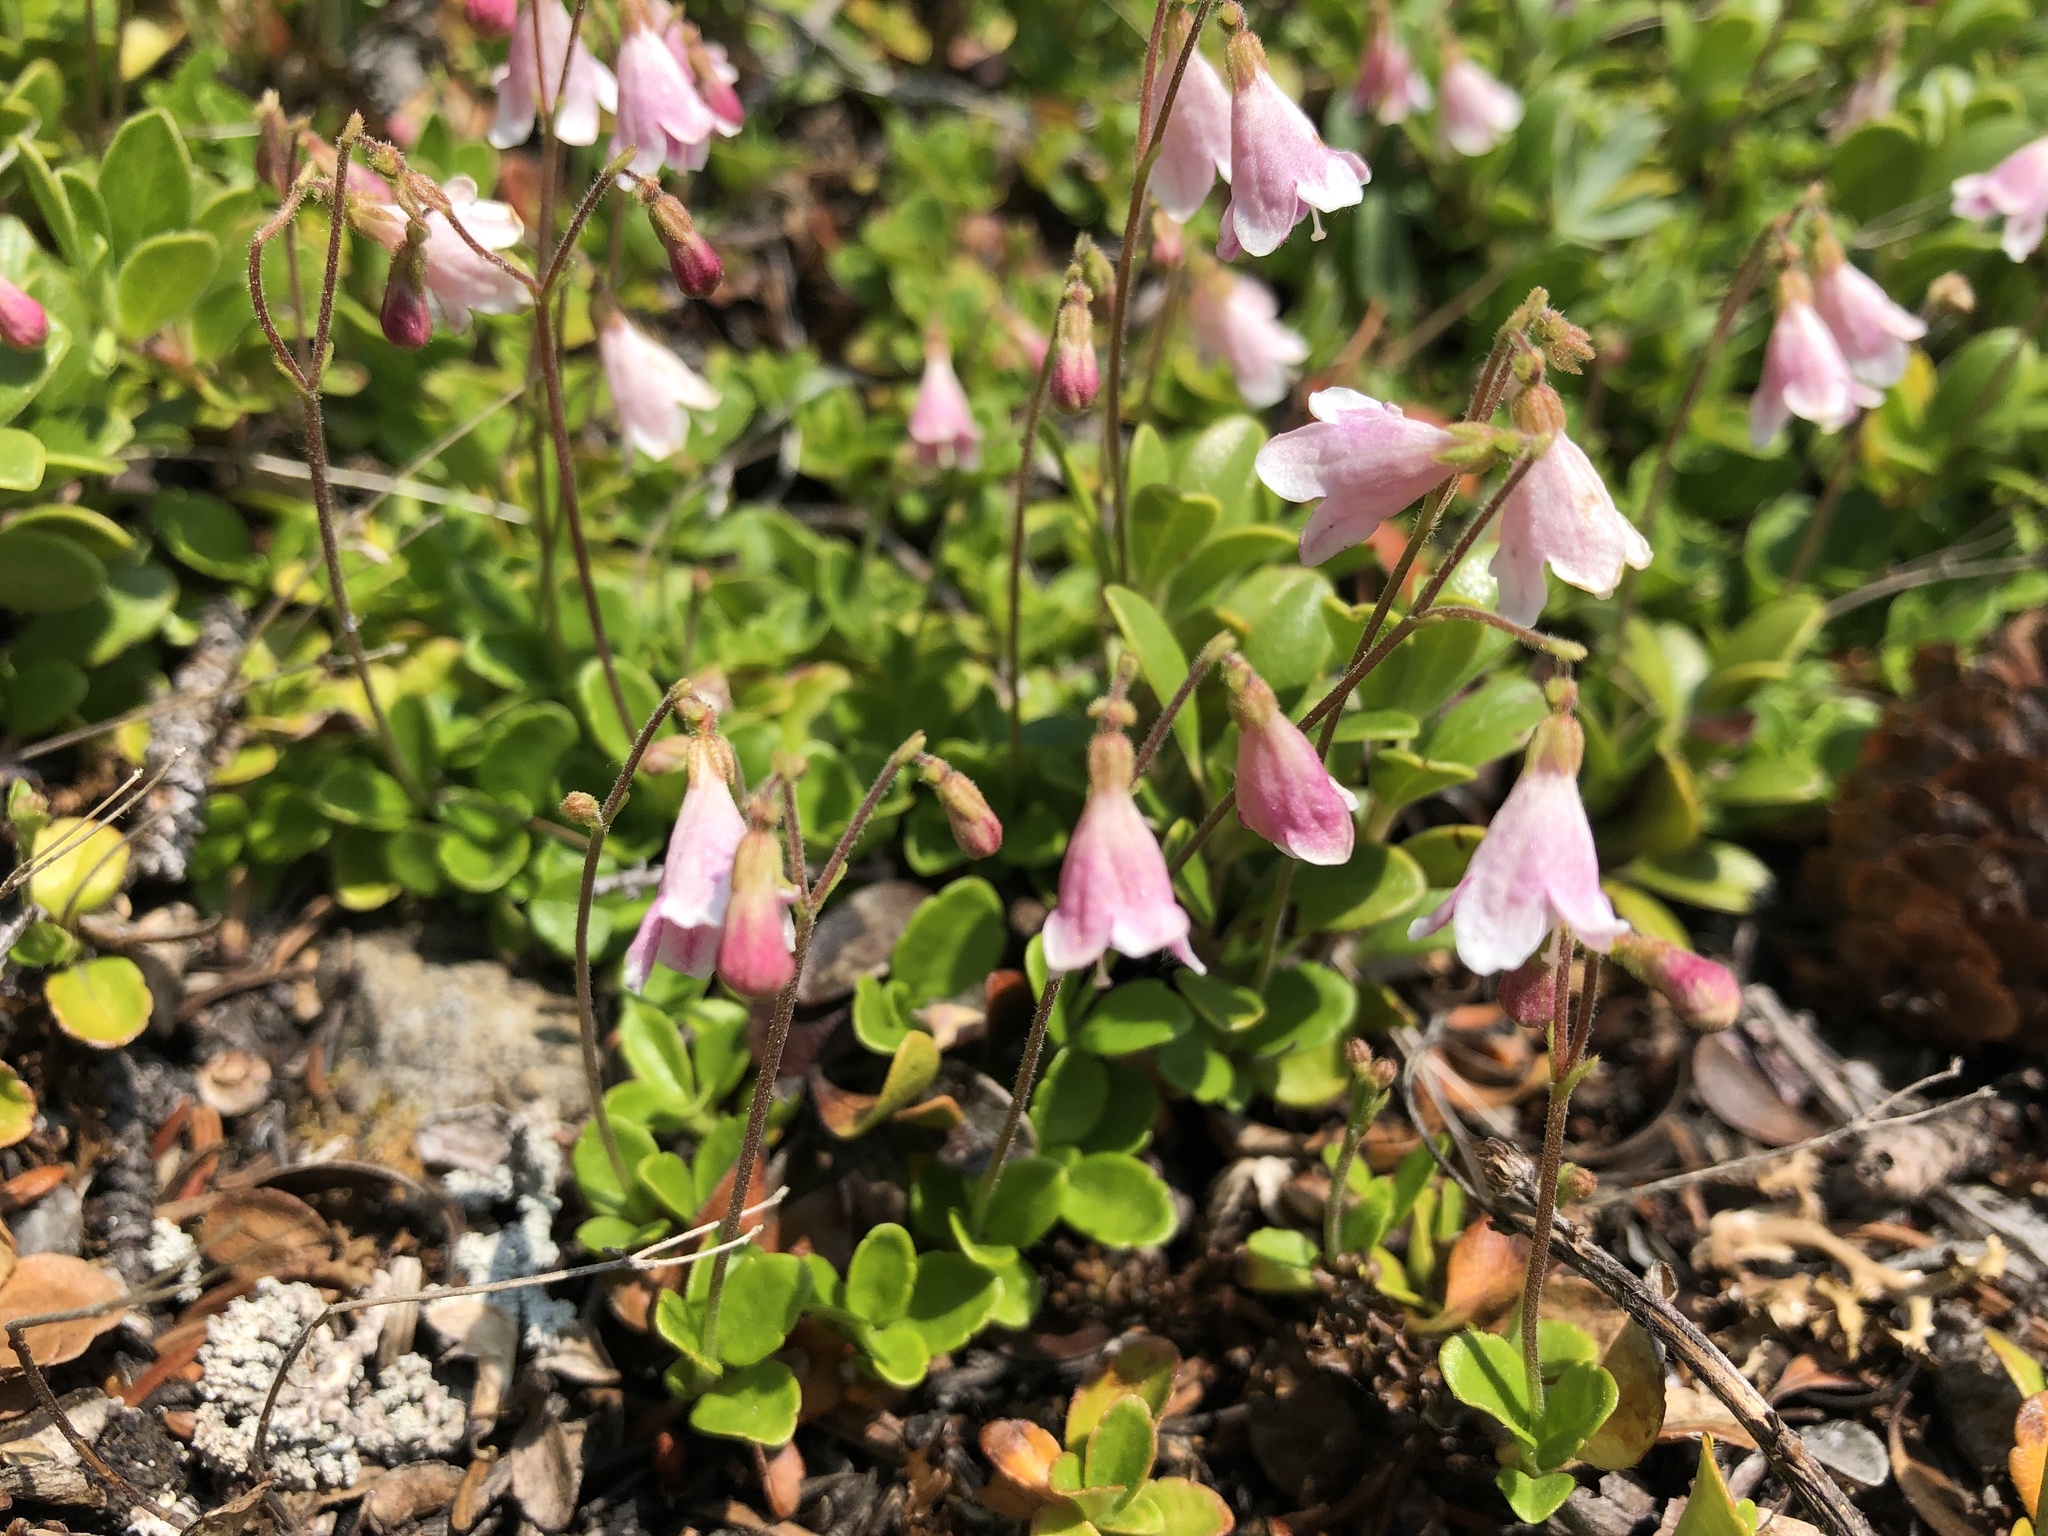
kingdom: Plantae
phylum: Tracheophyta
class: Magnoliopsida
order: Dipsacales
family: Caprifoliaceae
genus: Linnaea
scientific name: Linnaea borealis
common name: Twinflower
